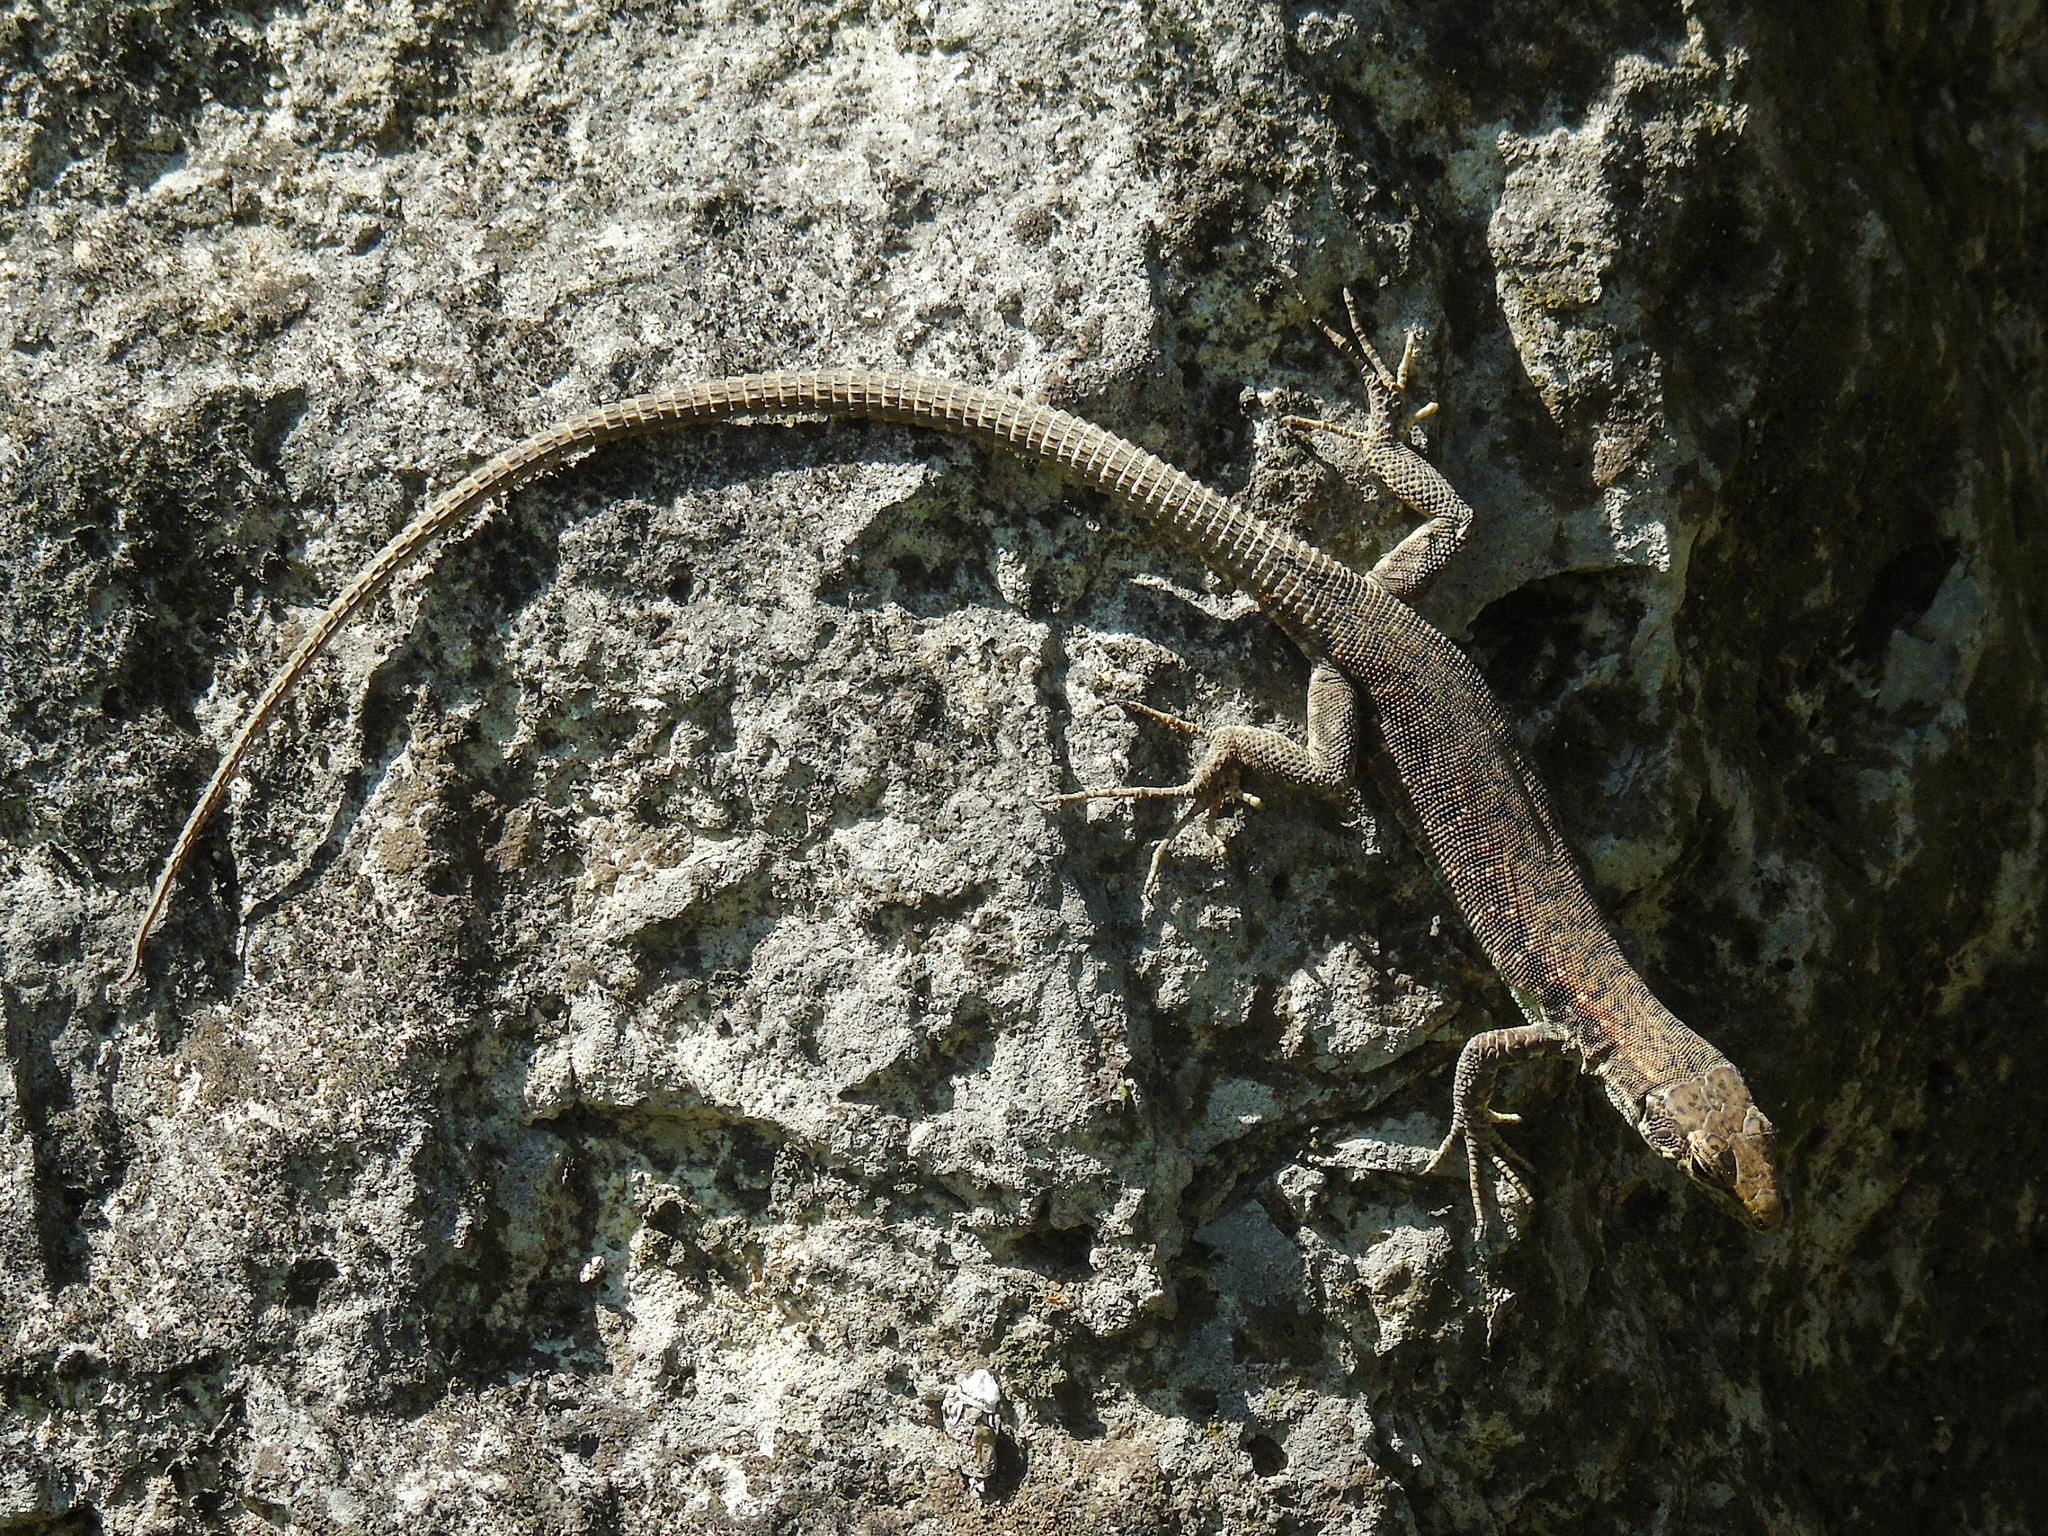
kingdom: Animalia
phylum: Chordata
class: Squamata
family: Lacertidae
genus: Darevskia
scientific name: Darevskia rudis
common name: Spiny-tailed lizard
